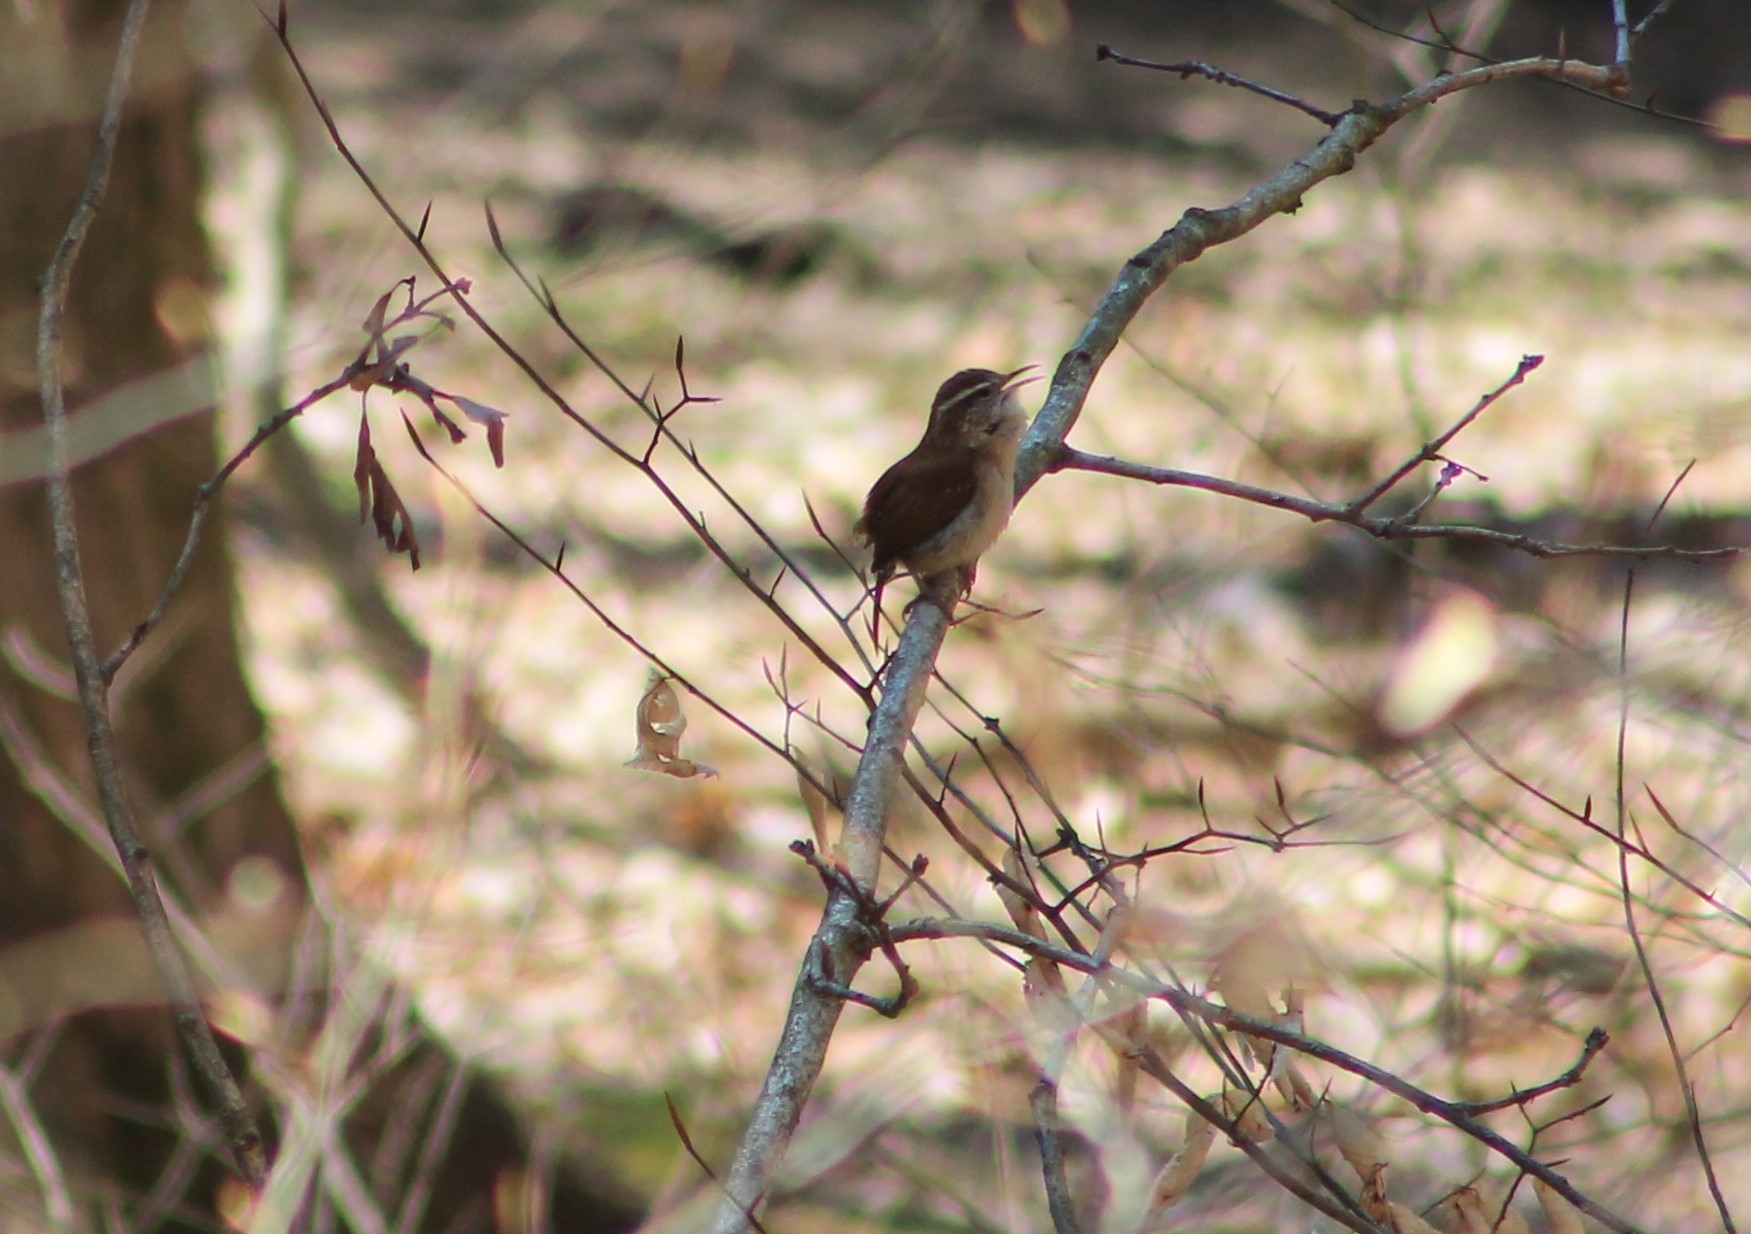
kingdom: Animalia
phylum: Chordata
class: Aves
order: Passeriformes
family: Troglodytidae
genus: Thryothorus
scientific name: Thryothorus ludovicianus
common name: Carolina wren
